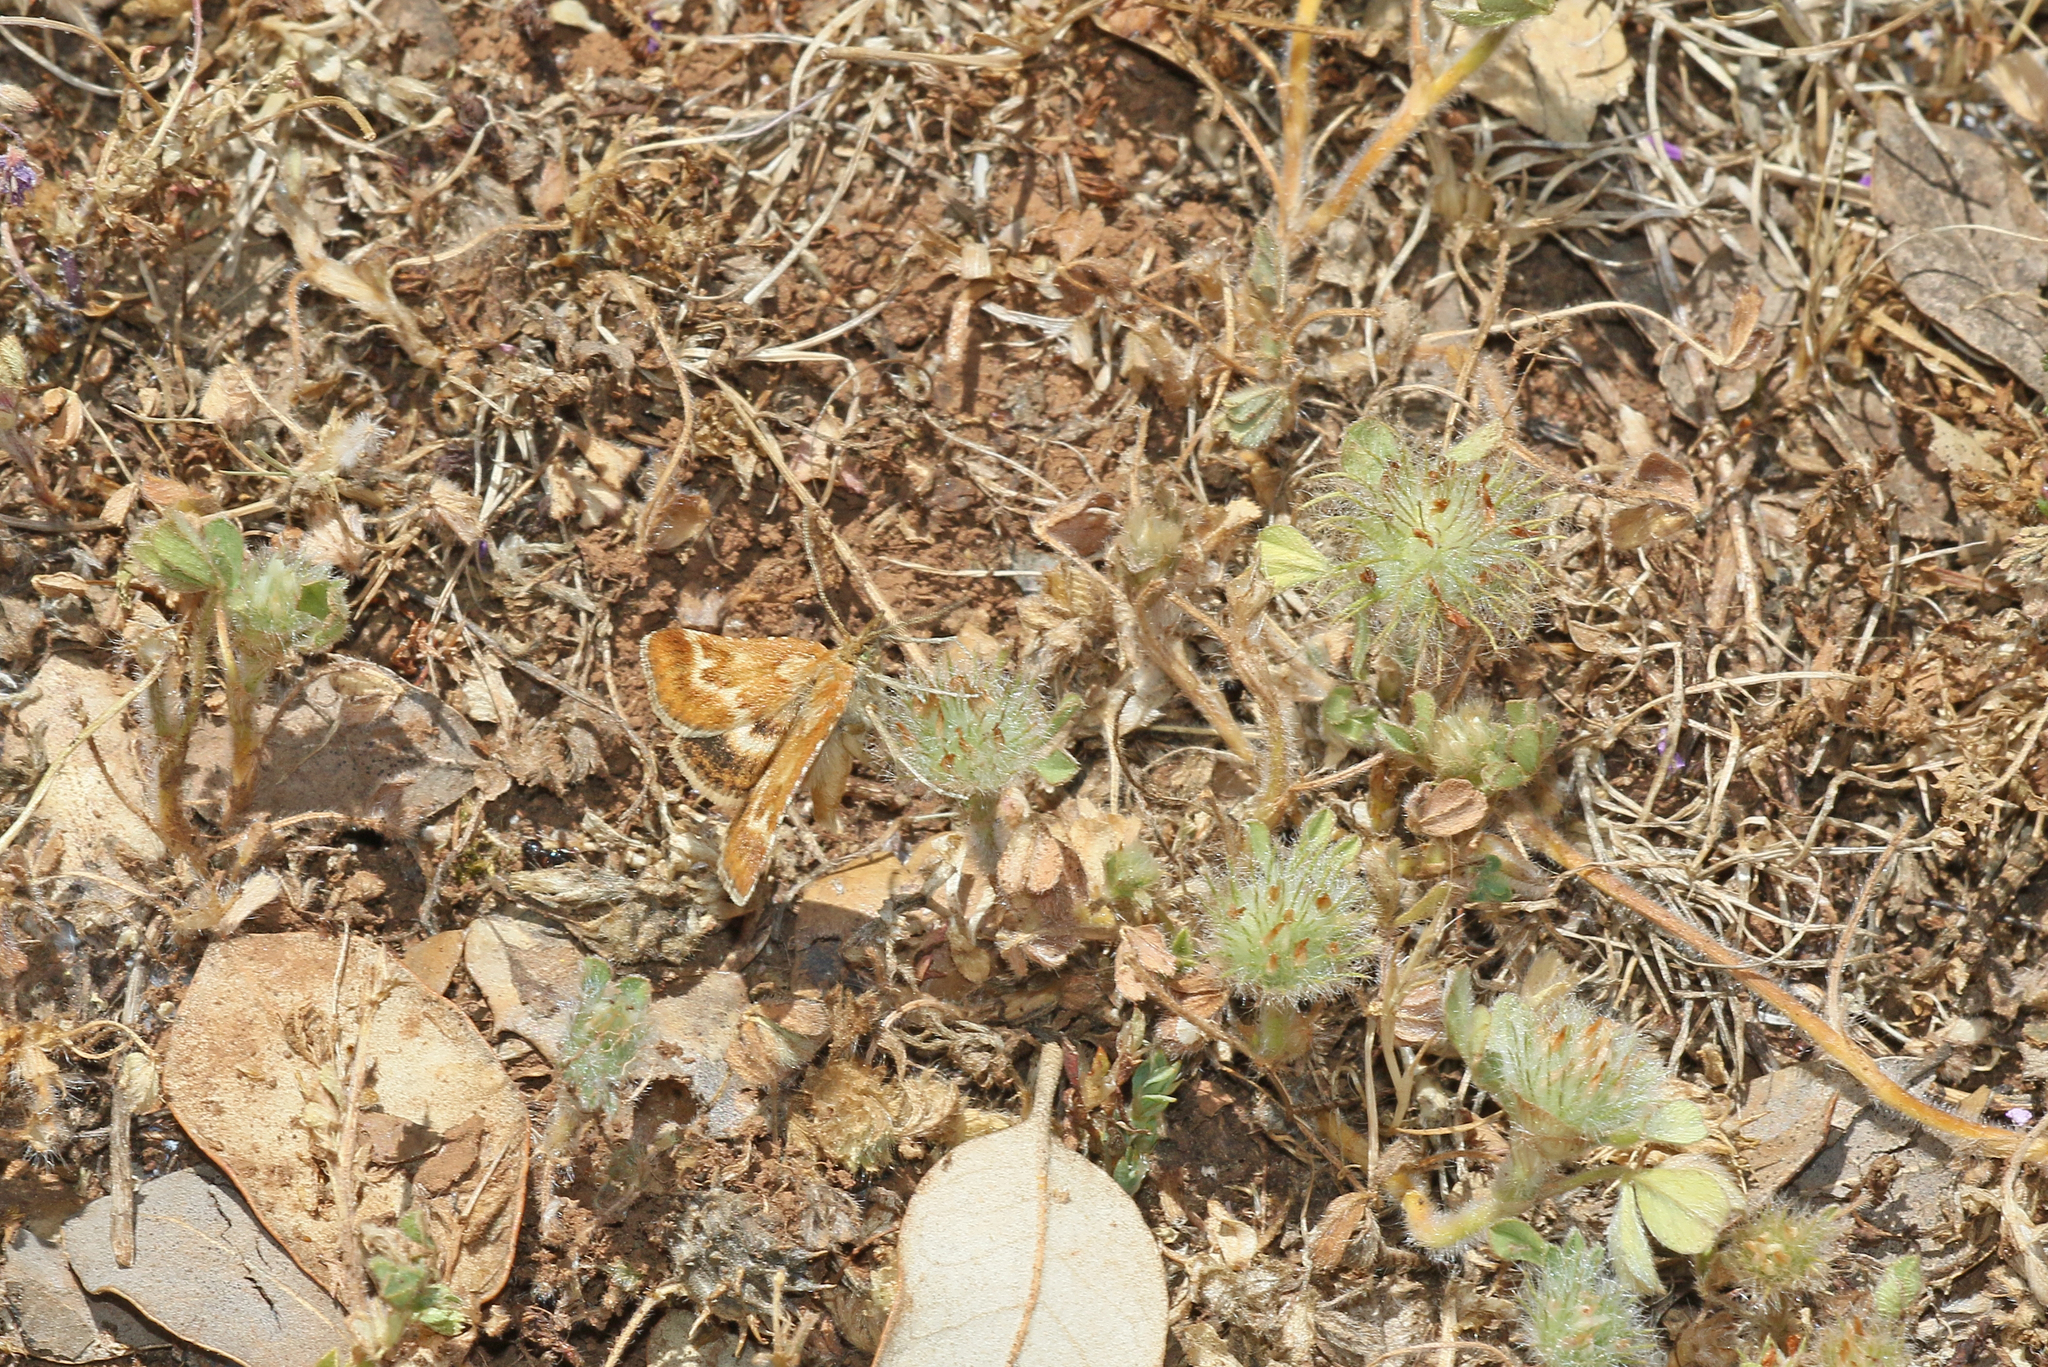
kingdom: Animalia
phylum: Arthropoda
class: Insecta
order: Lepidoptera
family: Pyralidae
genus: Synaphe
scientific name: Synaphe moldavica
